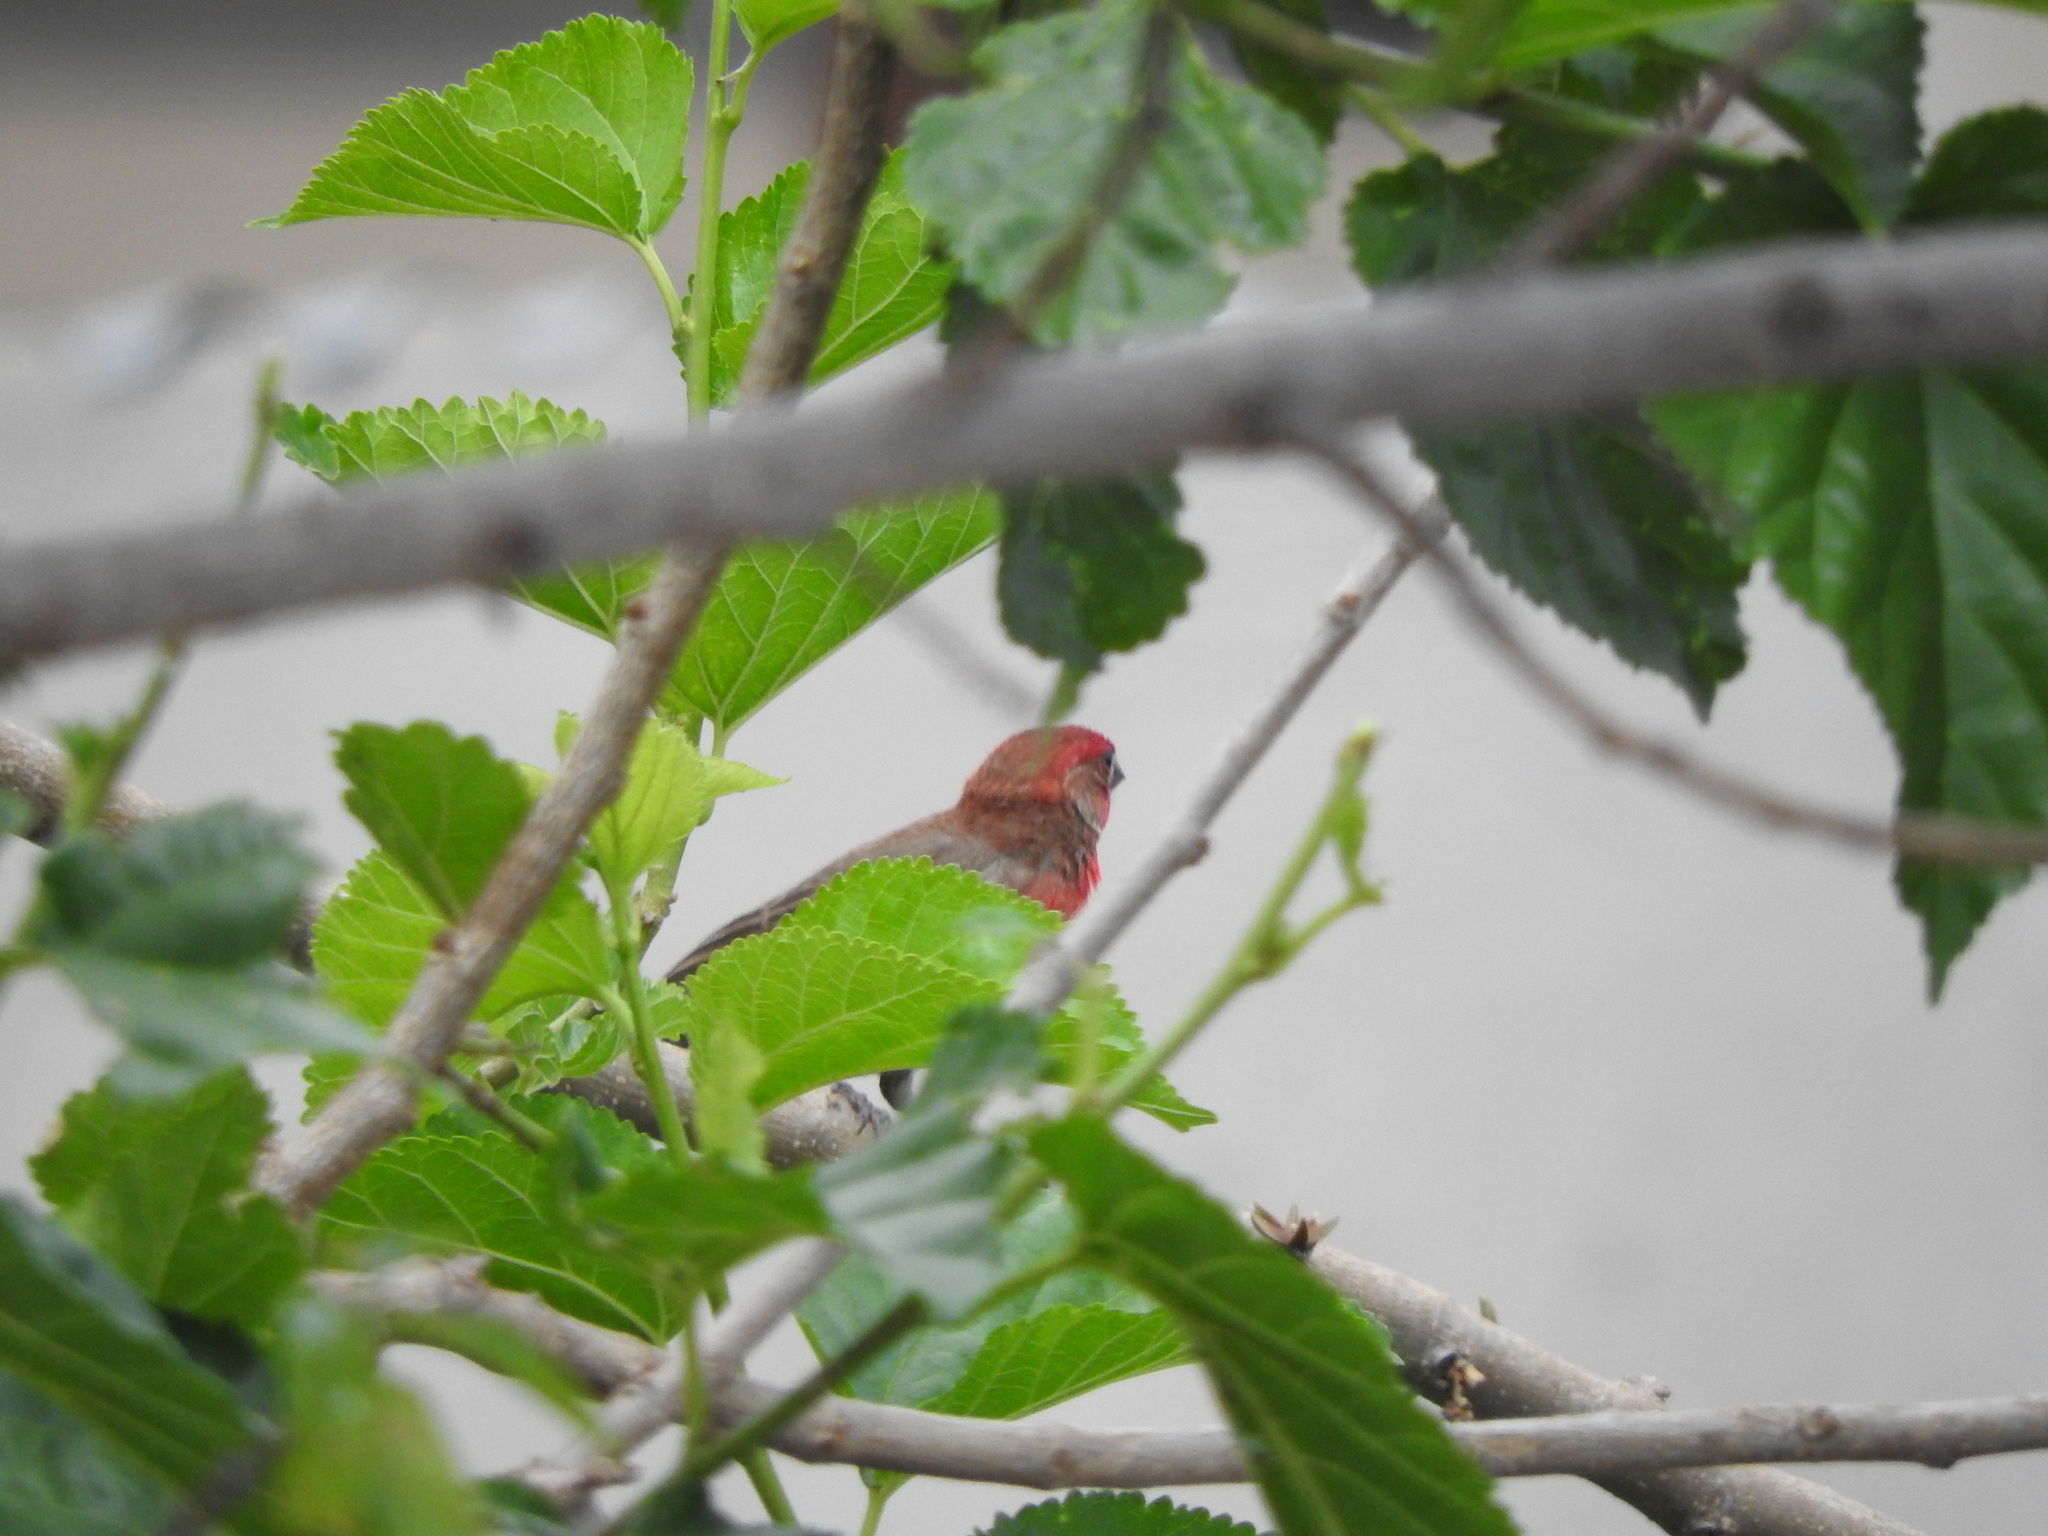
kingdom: Animalia
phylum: Chordata
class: Aves
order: Passeriformes
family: Fringillidae
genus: Haemorhous
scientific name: Haemorhous mexicanus
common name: House finch
